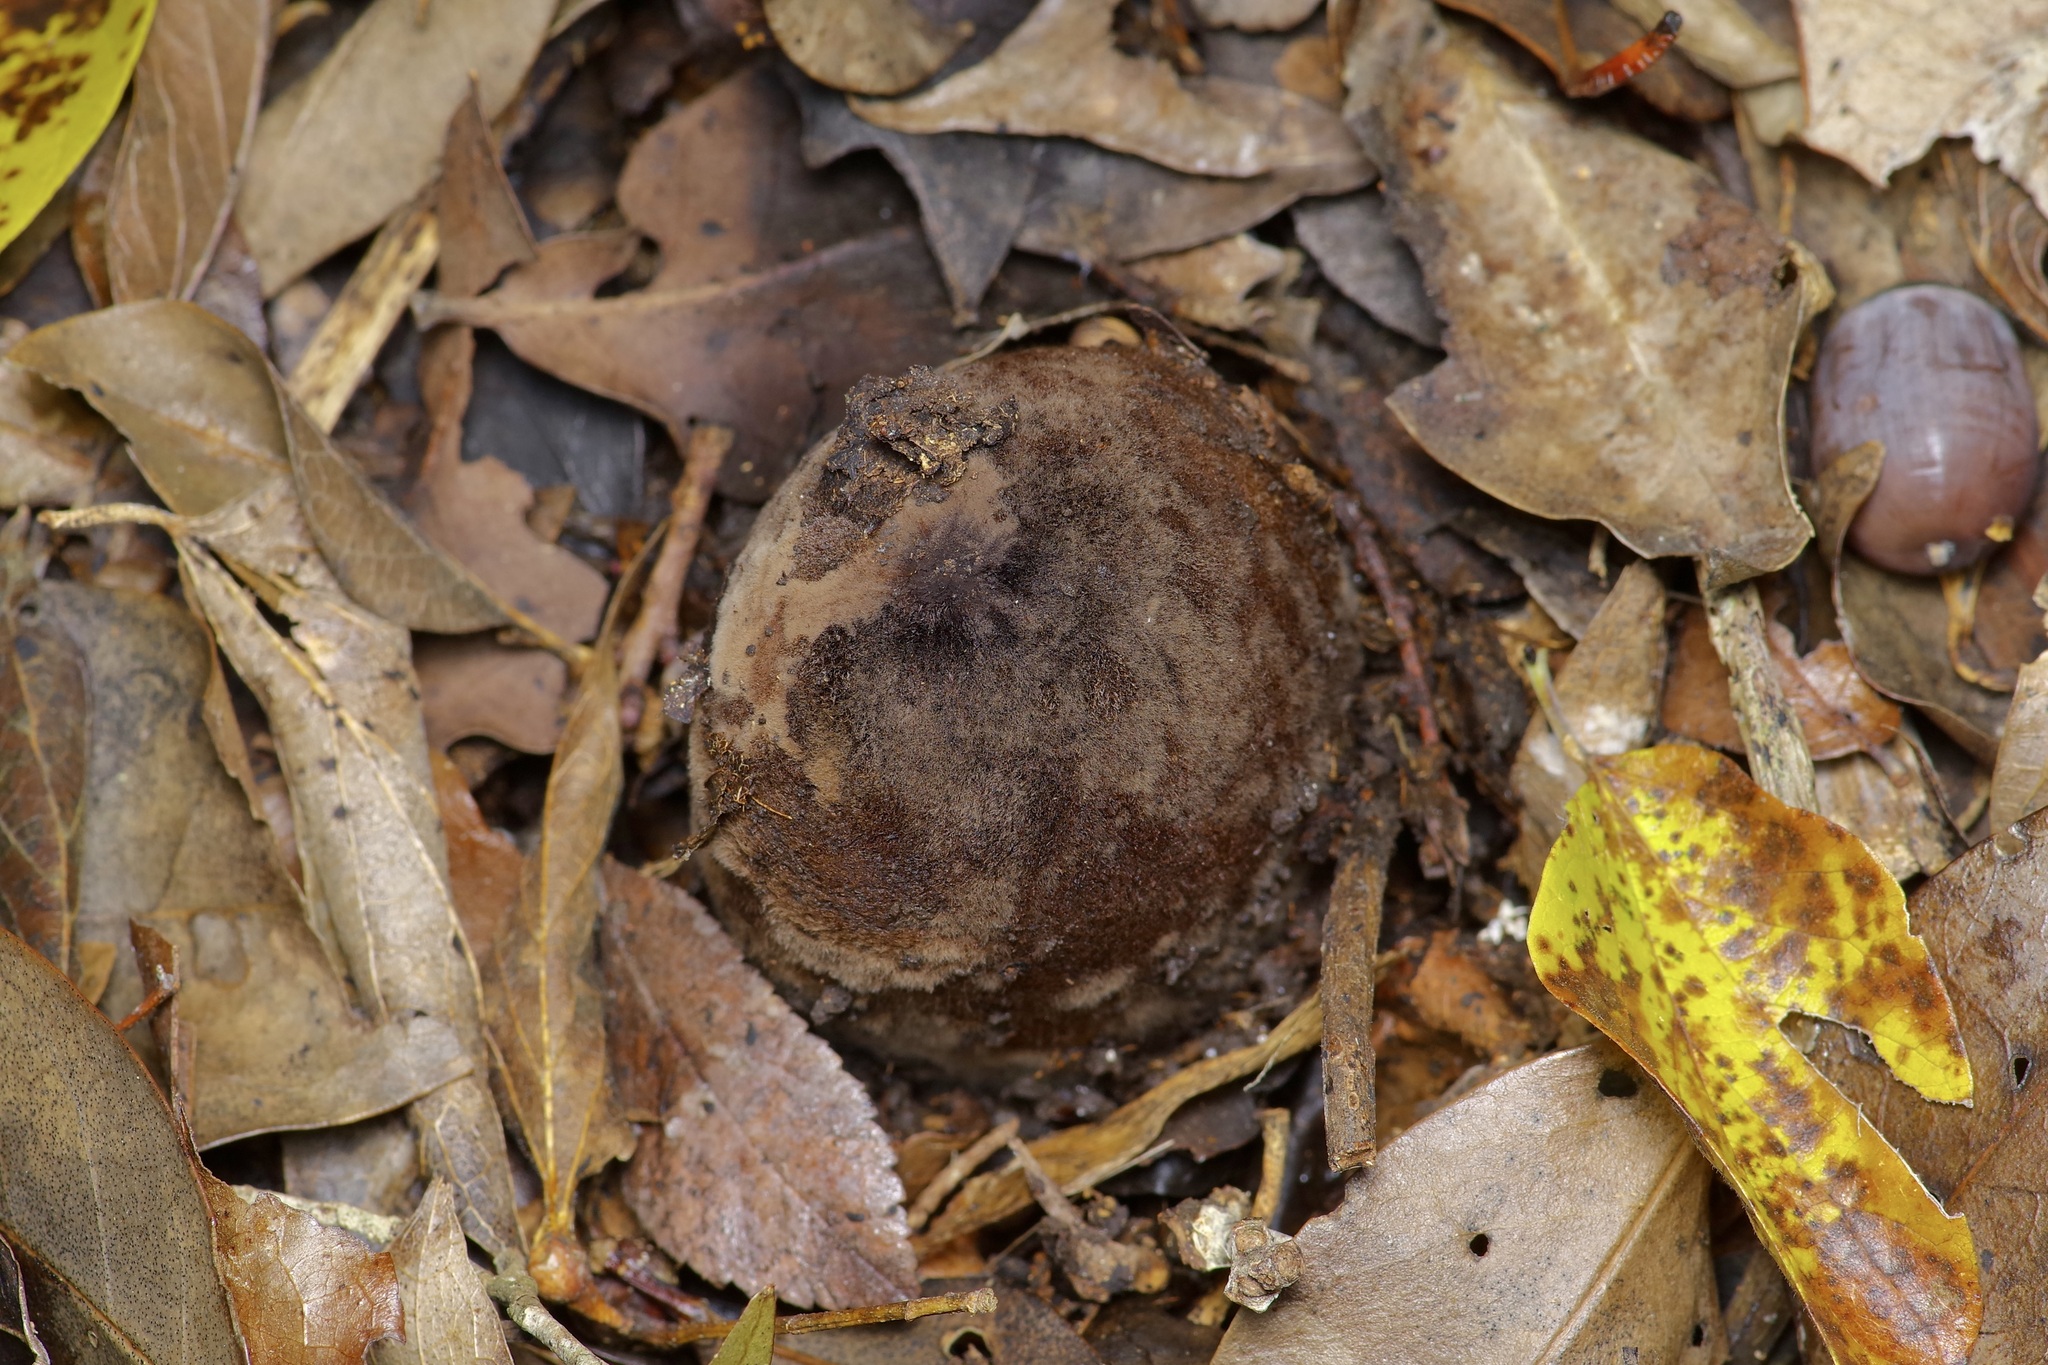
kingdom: Fungi
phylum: Ascomycota
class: Pezizomycetes
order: Pezizales
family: Chorioactidaceae
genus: Chorioactis
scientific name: Chorioactis geaster
